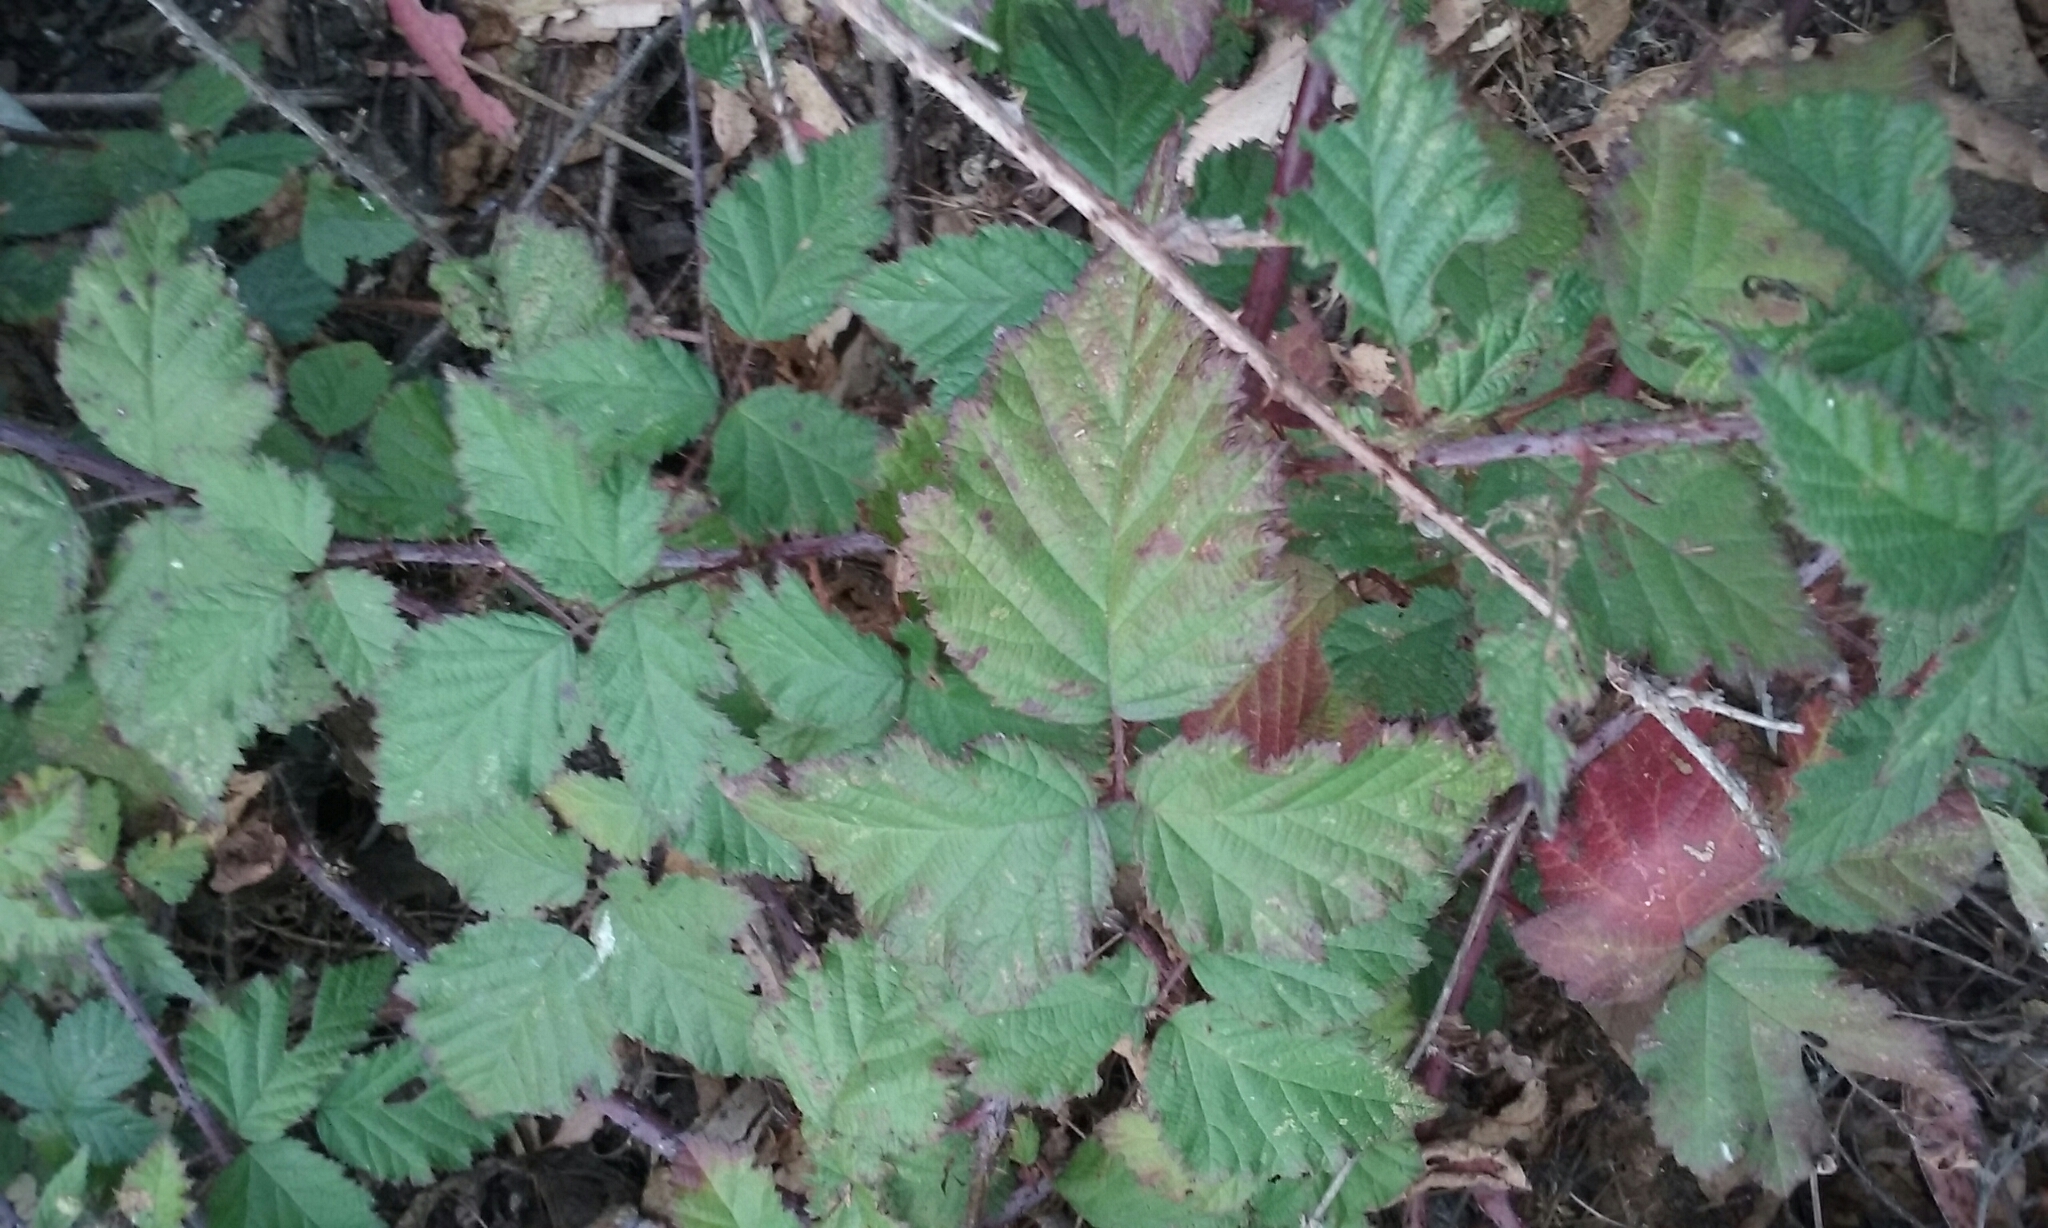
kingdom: Plantae
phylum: Tracheophyta
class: Magnoliopsida
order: Rosales
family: Rosaceae
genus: Rubus
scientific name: Rubus ursinus
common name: Pacific blackberry
